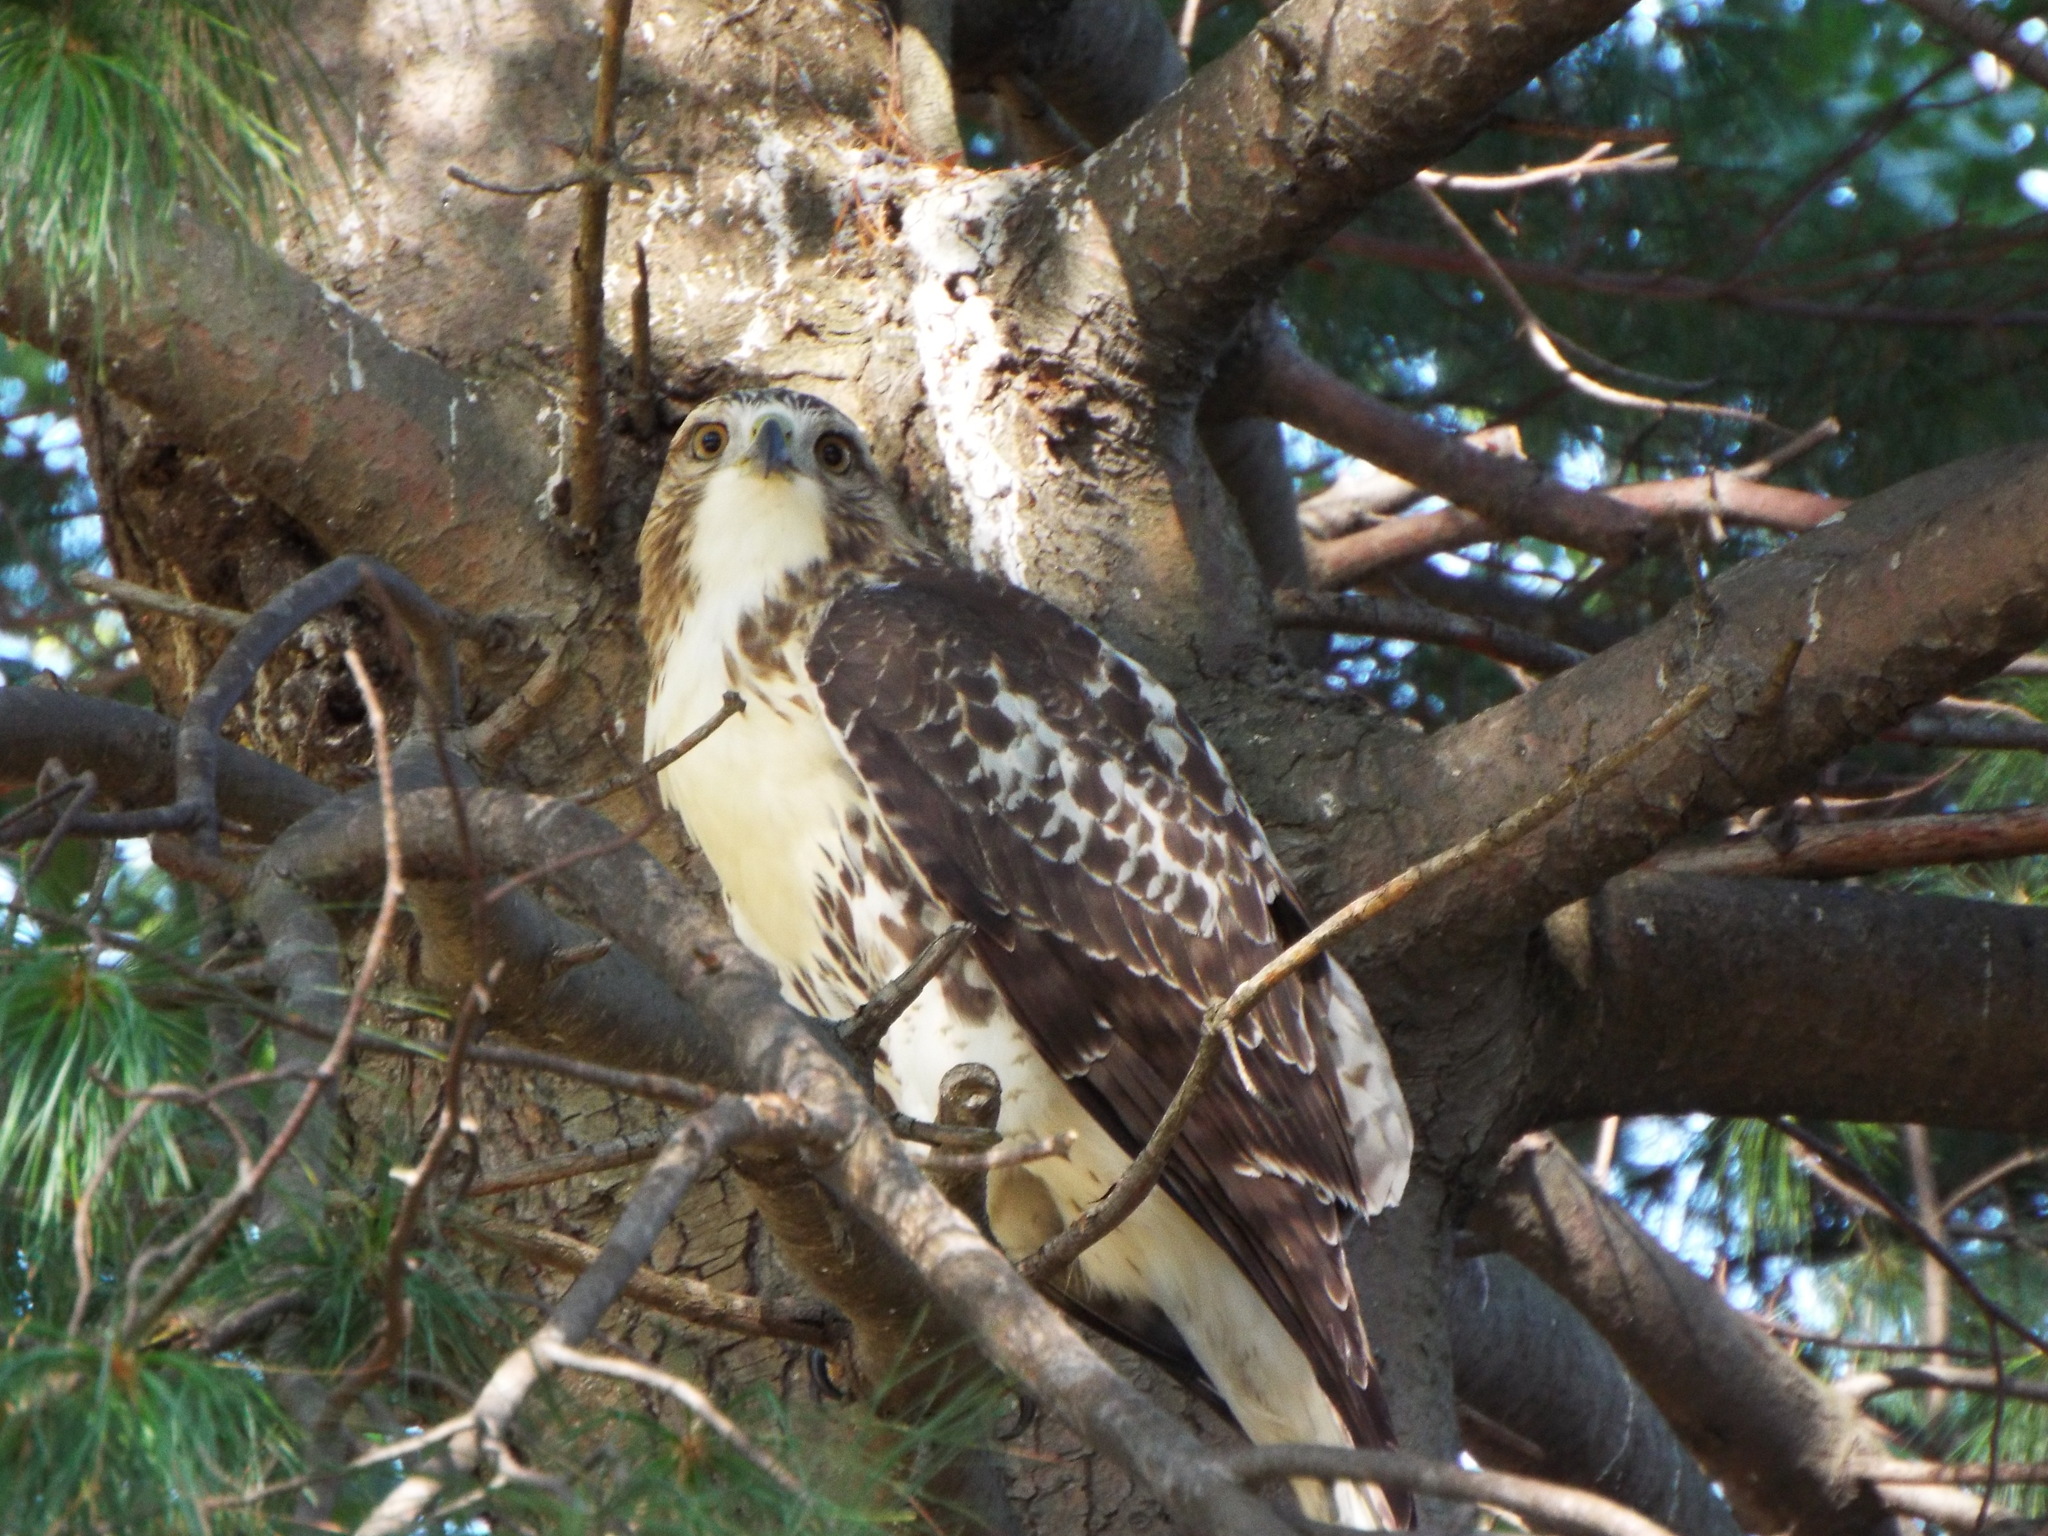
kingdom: Animalia
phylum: Chordata
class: Aves
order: Accipitriformes
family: Accipitridae
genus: Buteo
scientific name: Buteo jamaicensis
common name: Red-tailed hawk
